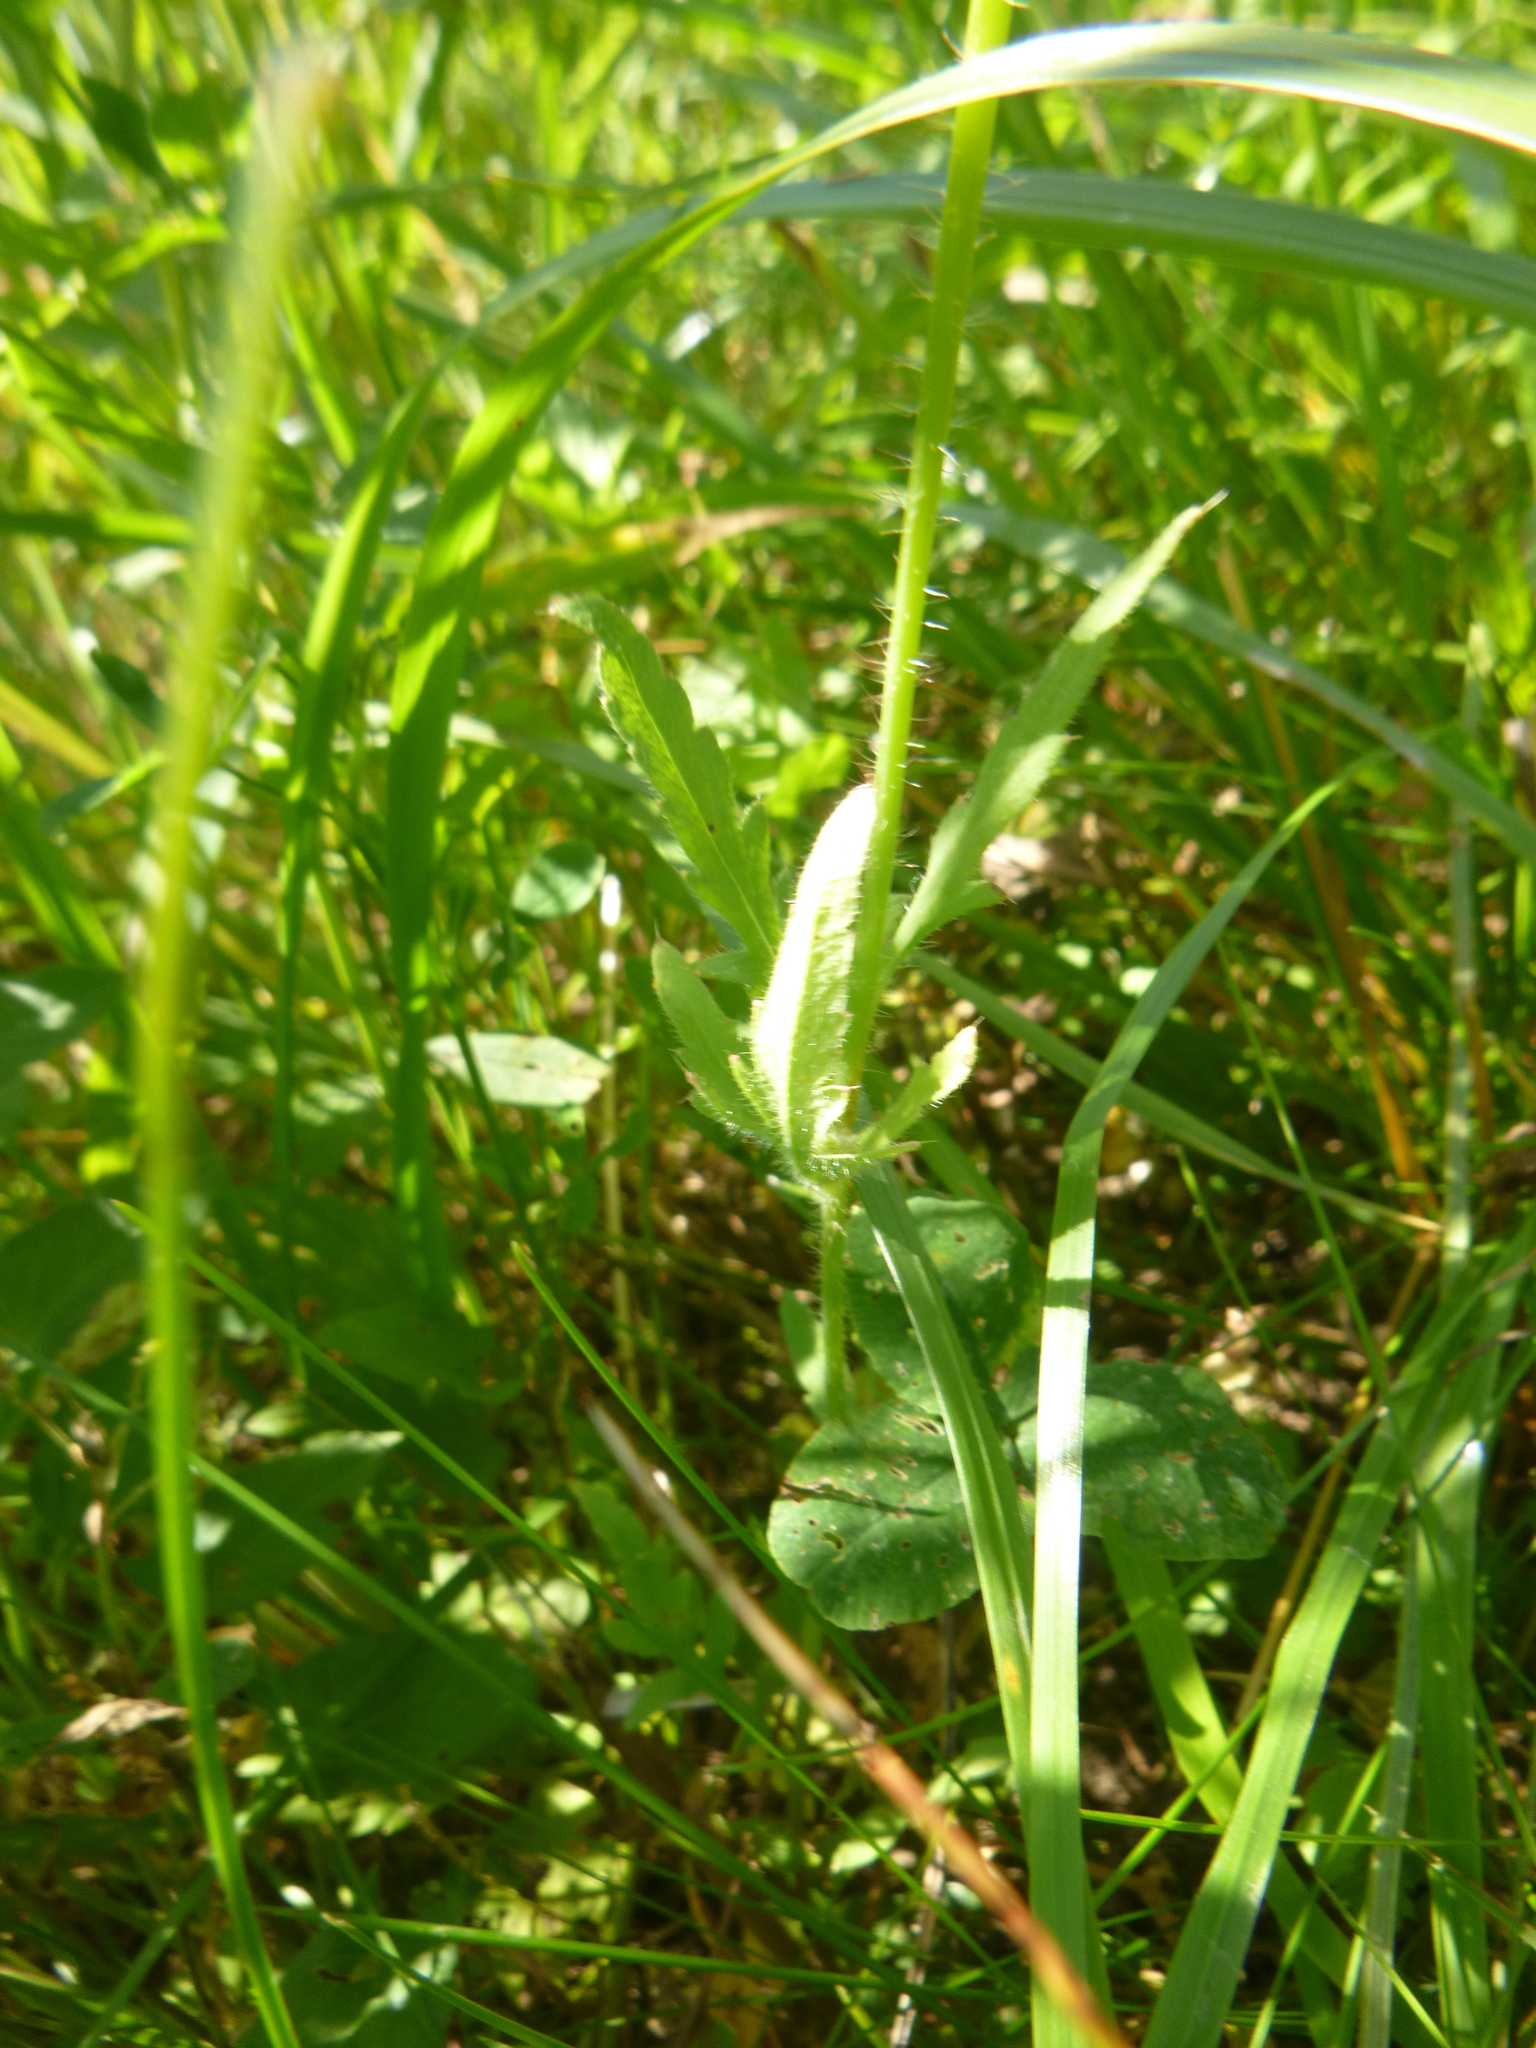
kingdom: Plantae
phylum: Tracheophyta
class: Magnoliopsida
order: Ranunculales
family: Papaveraceae
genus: Papaver
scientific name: Papaver rhoeas
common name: Corn poppy
